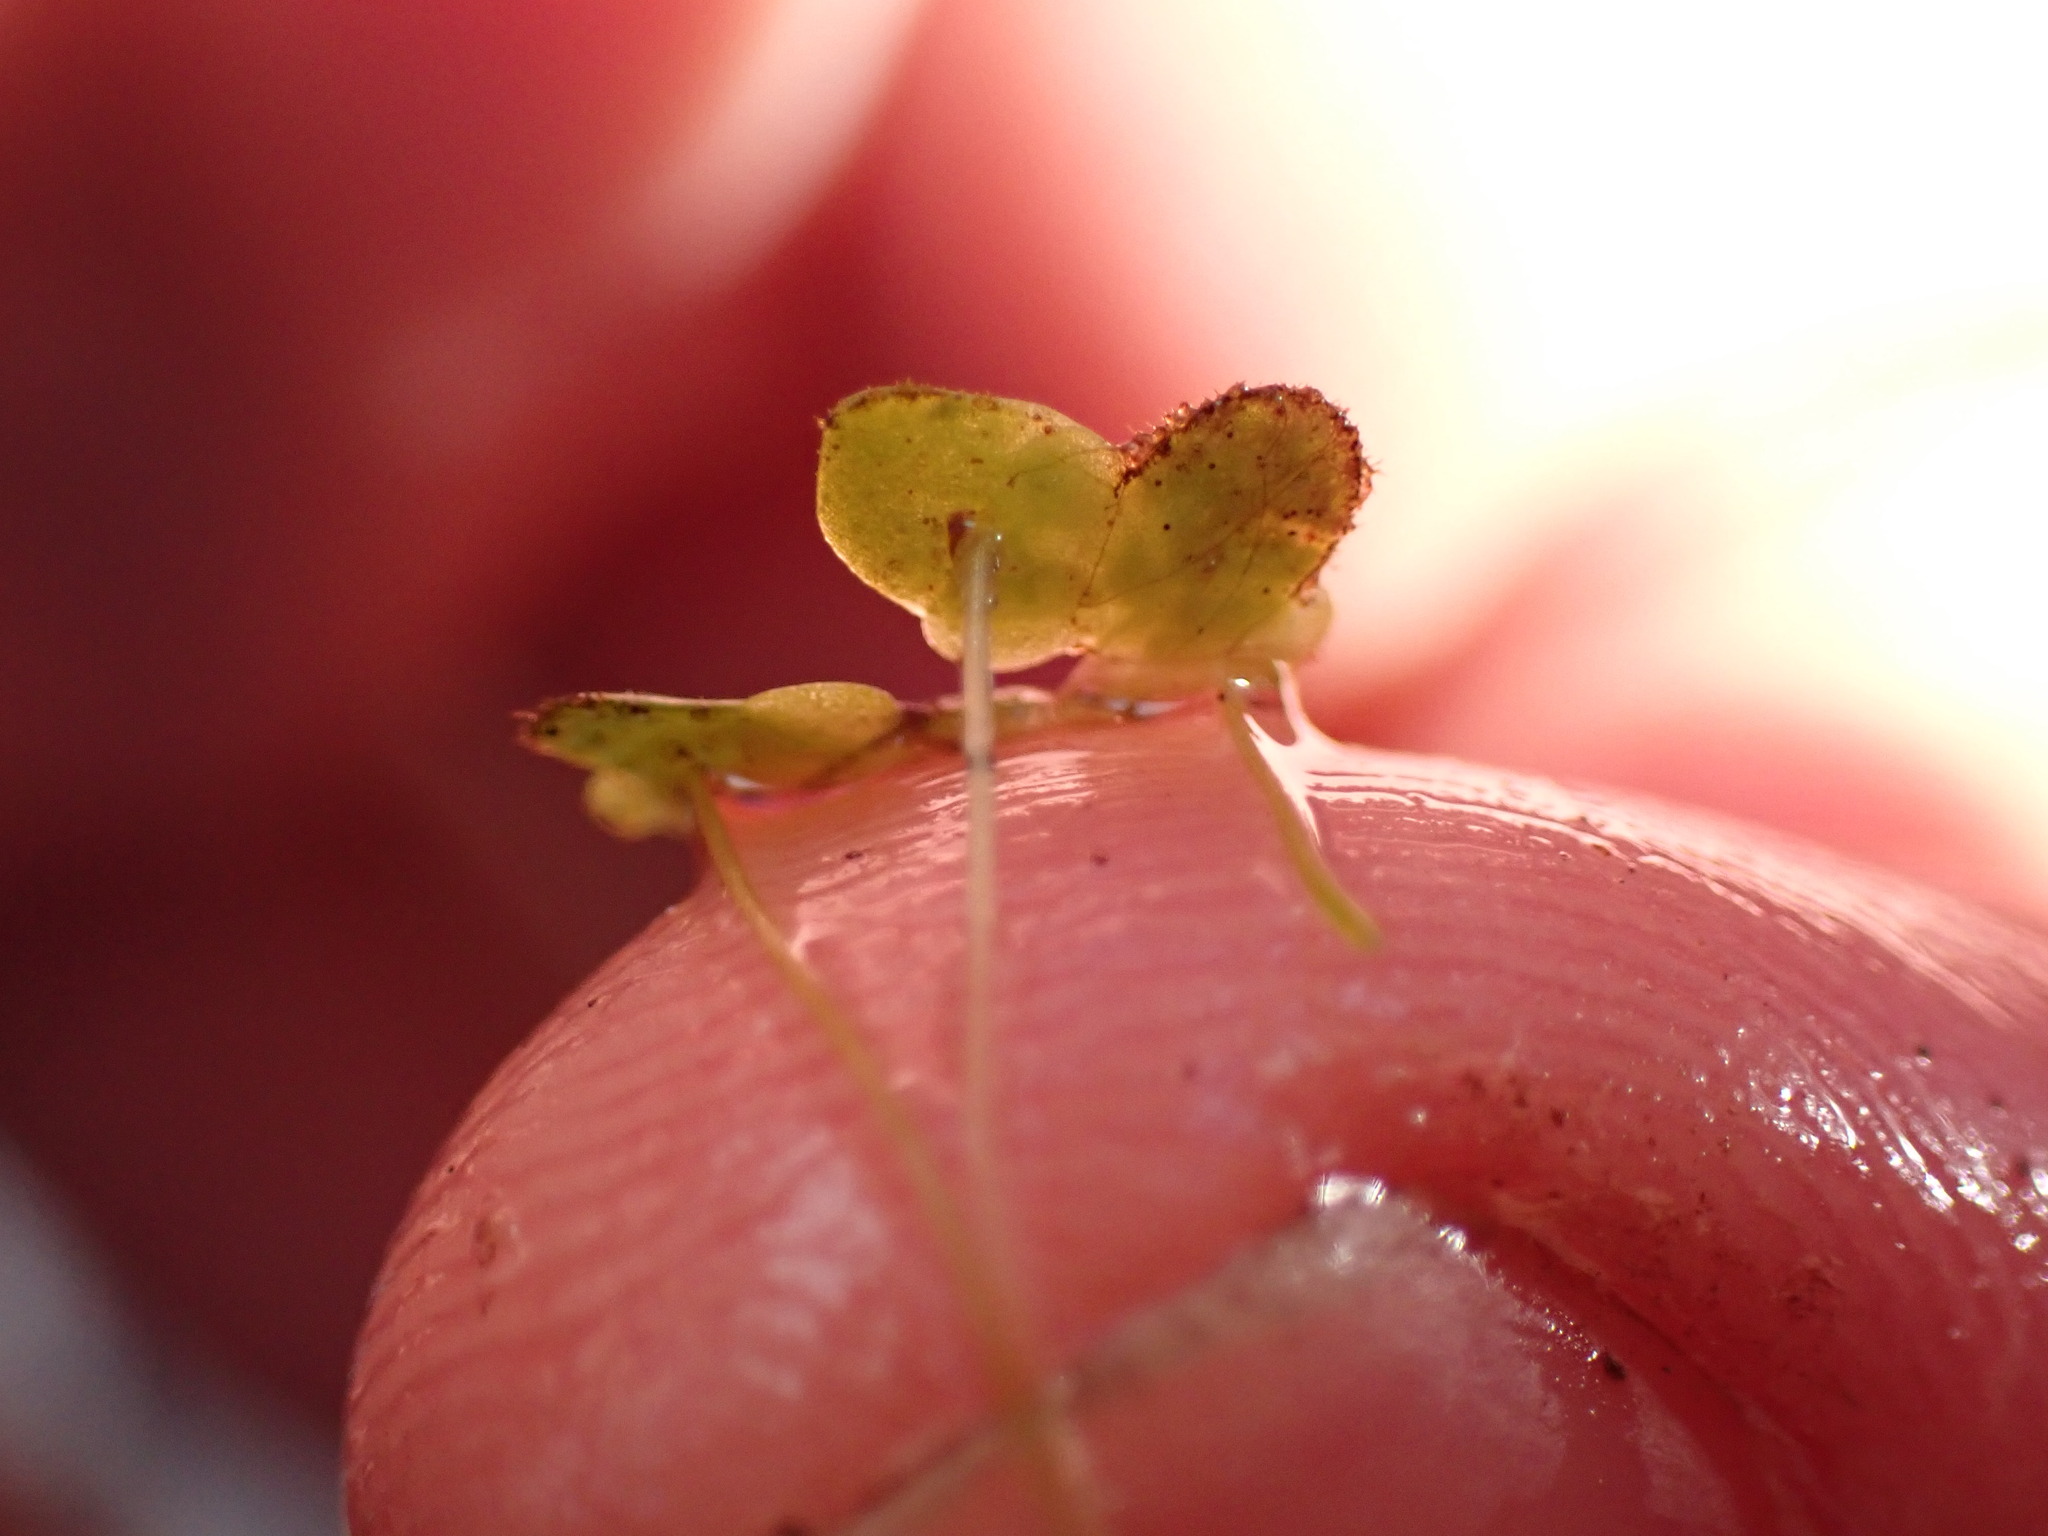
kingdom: Plantae
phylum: Tracheophyta
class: Liliopsida
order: Alismatales
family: Araceae
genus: Lemna
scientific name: Lemna minor
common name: Common duckweed
